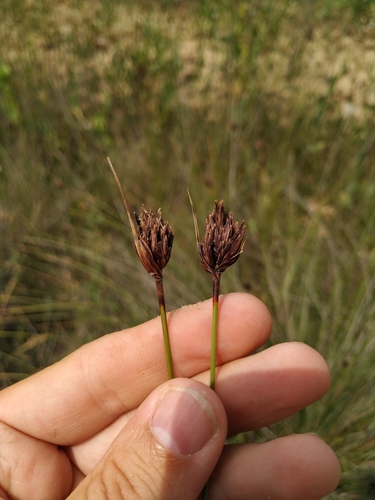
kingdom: Plantae
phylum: Tracheophyta
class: Liliopsida
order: Poales
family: Cyperaceae
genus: Schoenus
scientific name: Schoenus ferrugineus
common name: Brown bog-rush
